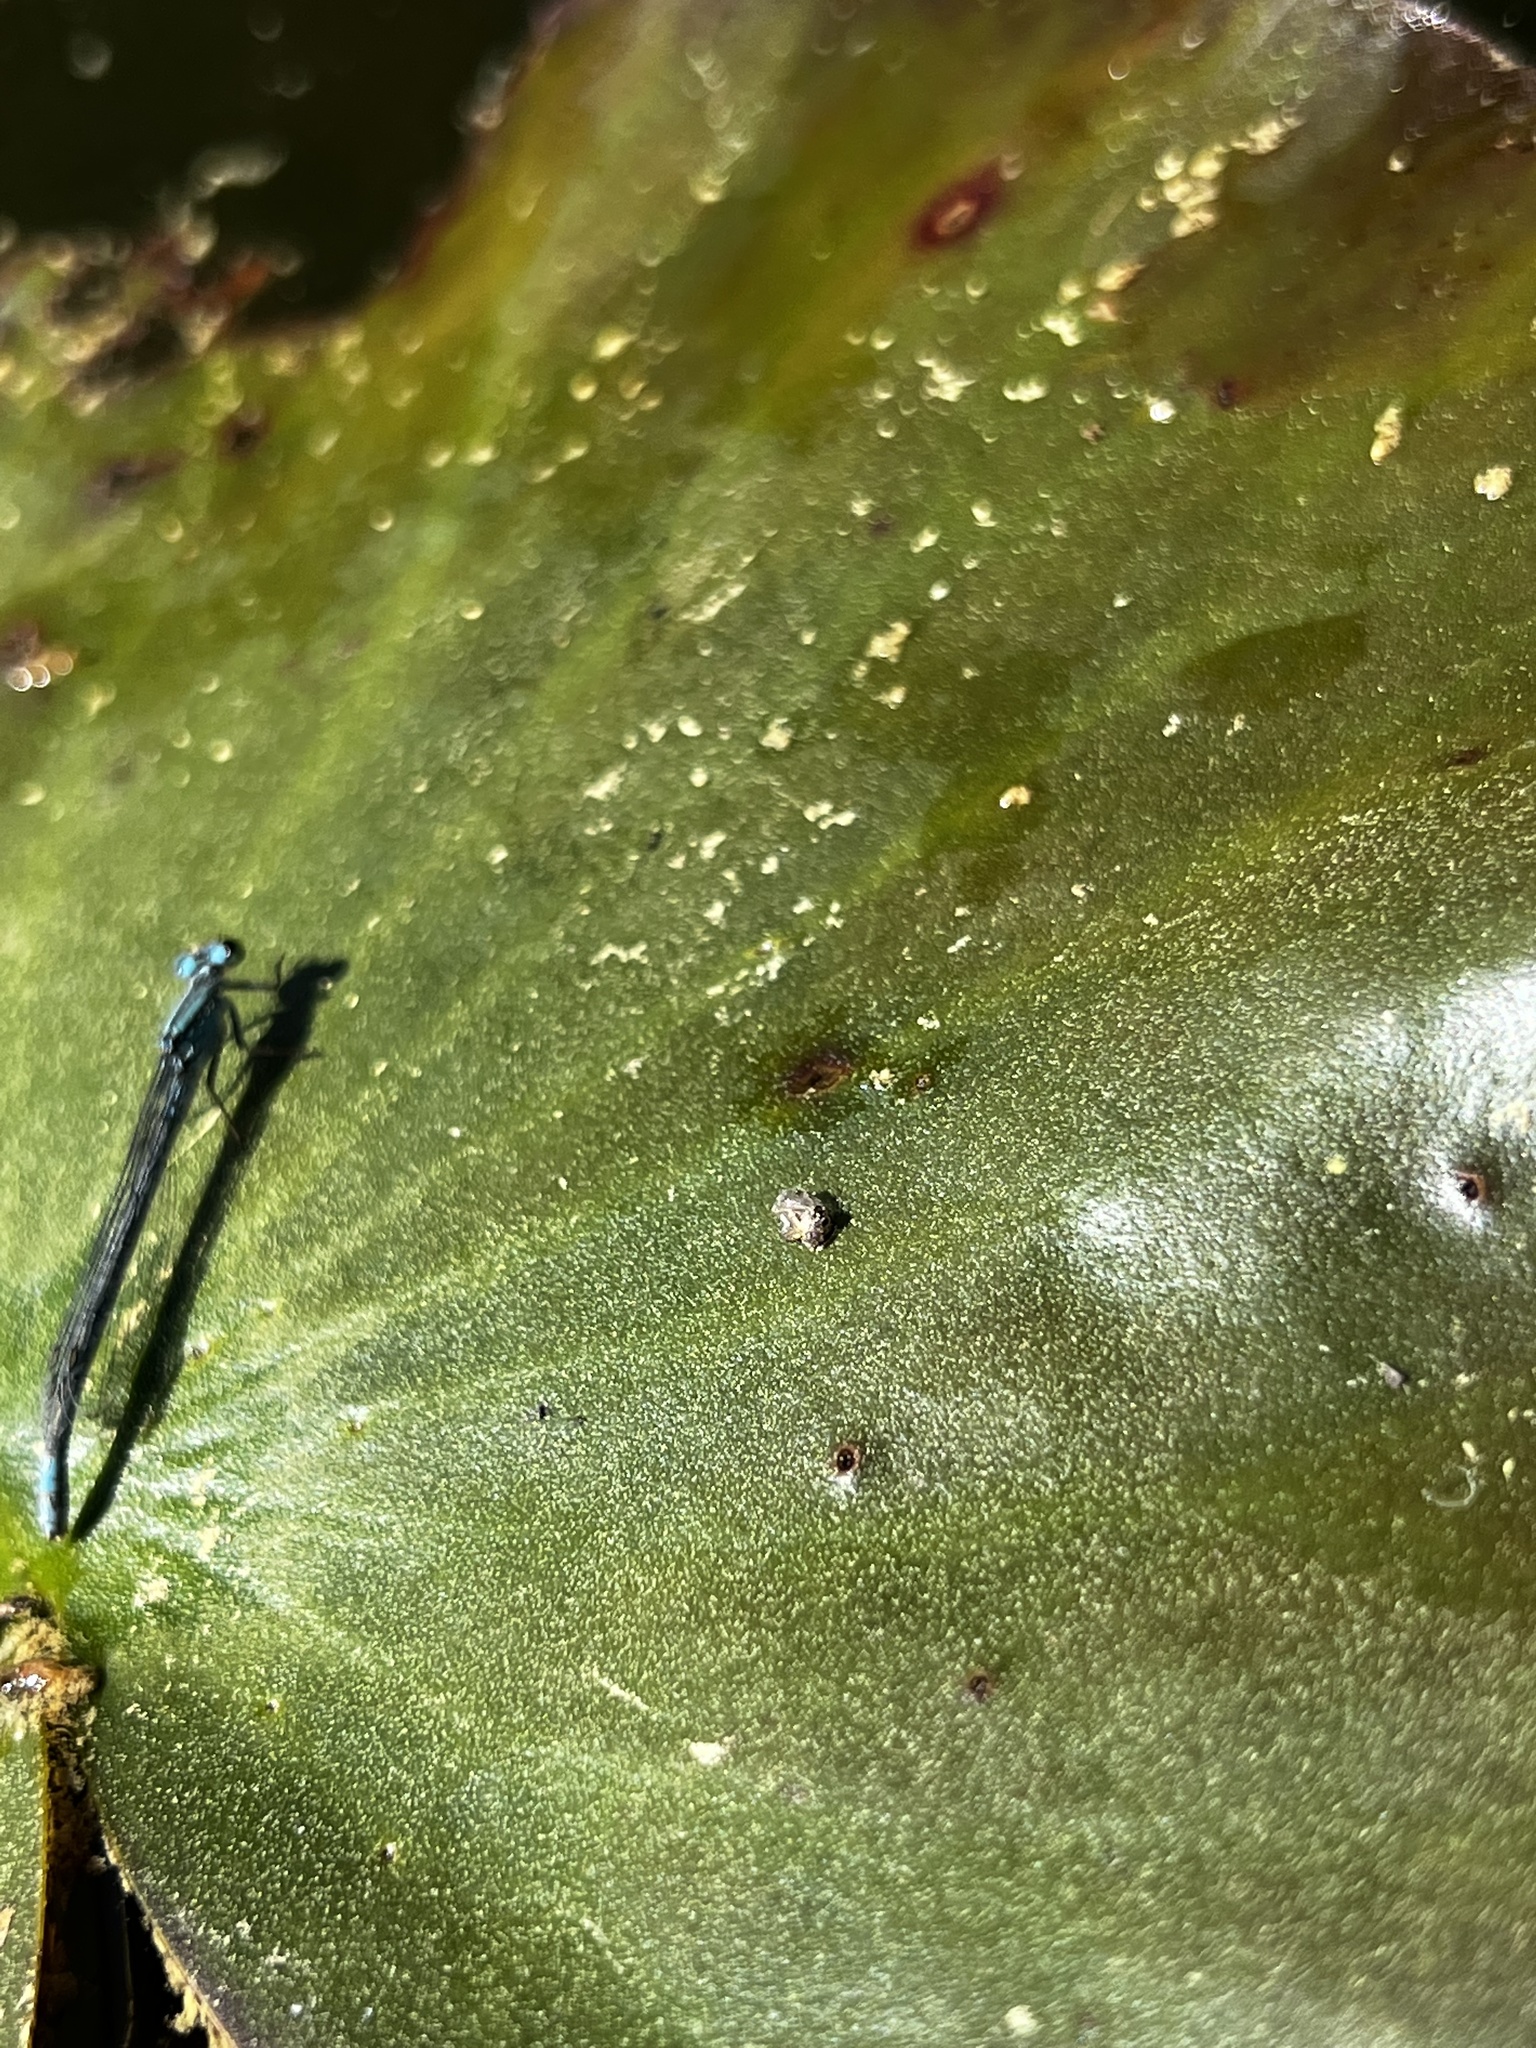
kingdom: Animalia
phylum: Arthropoda
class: Insecta
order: Odonata
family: Coenagrionidae
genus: Ischnura
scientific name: Ischnura kellicotti
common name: Lilypad forktail
